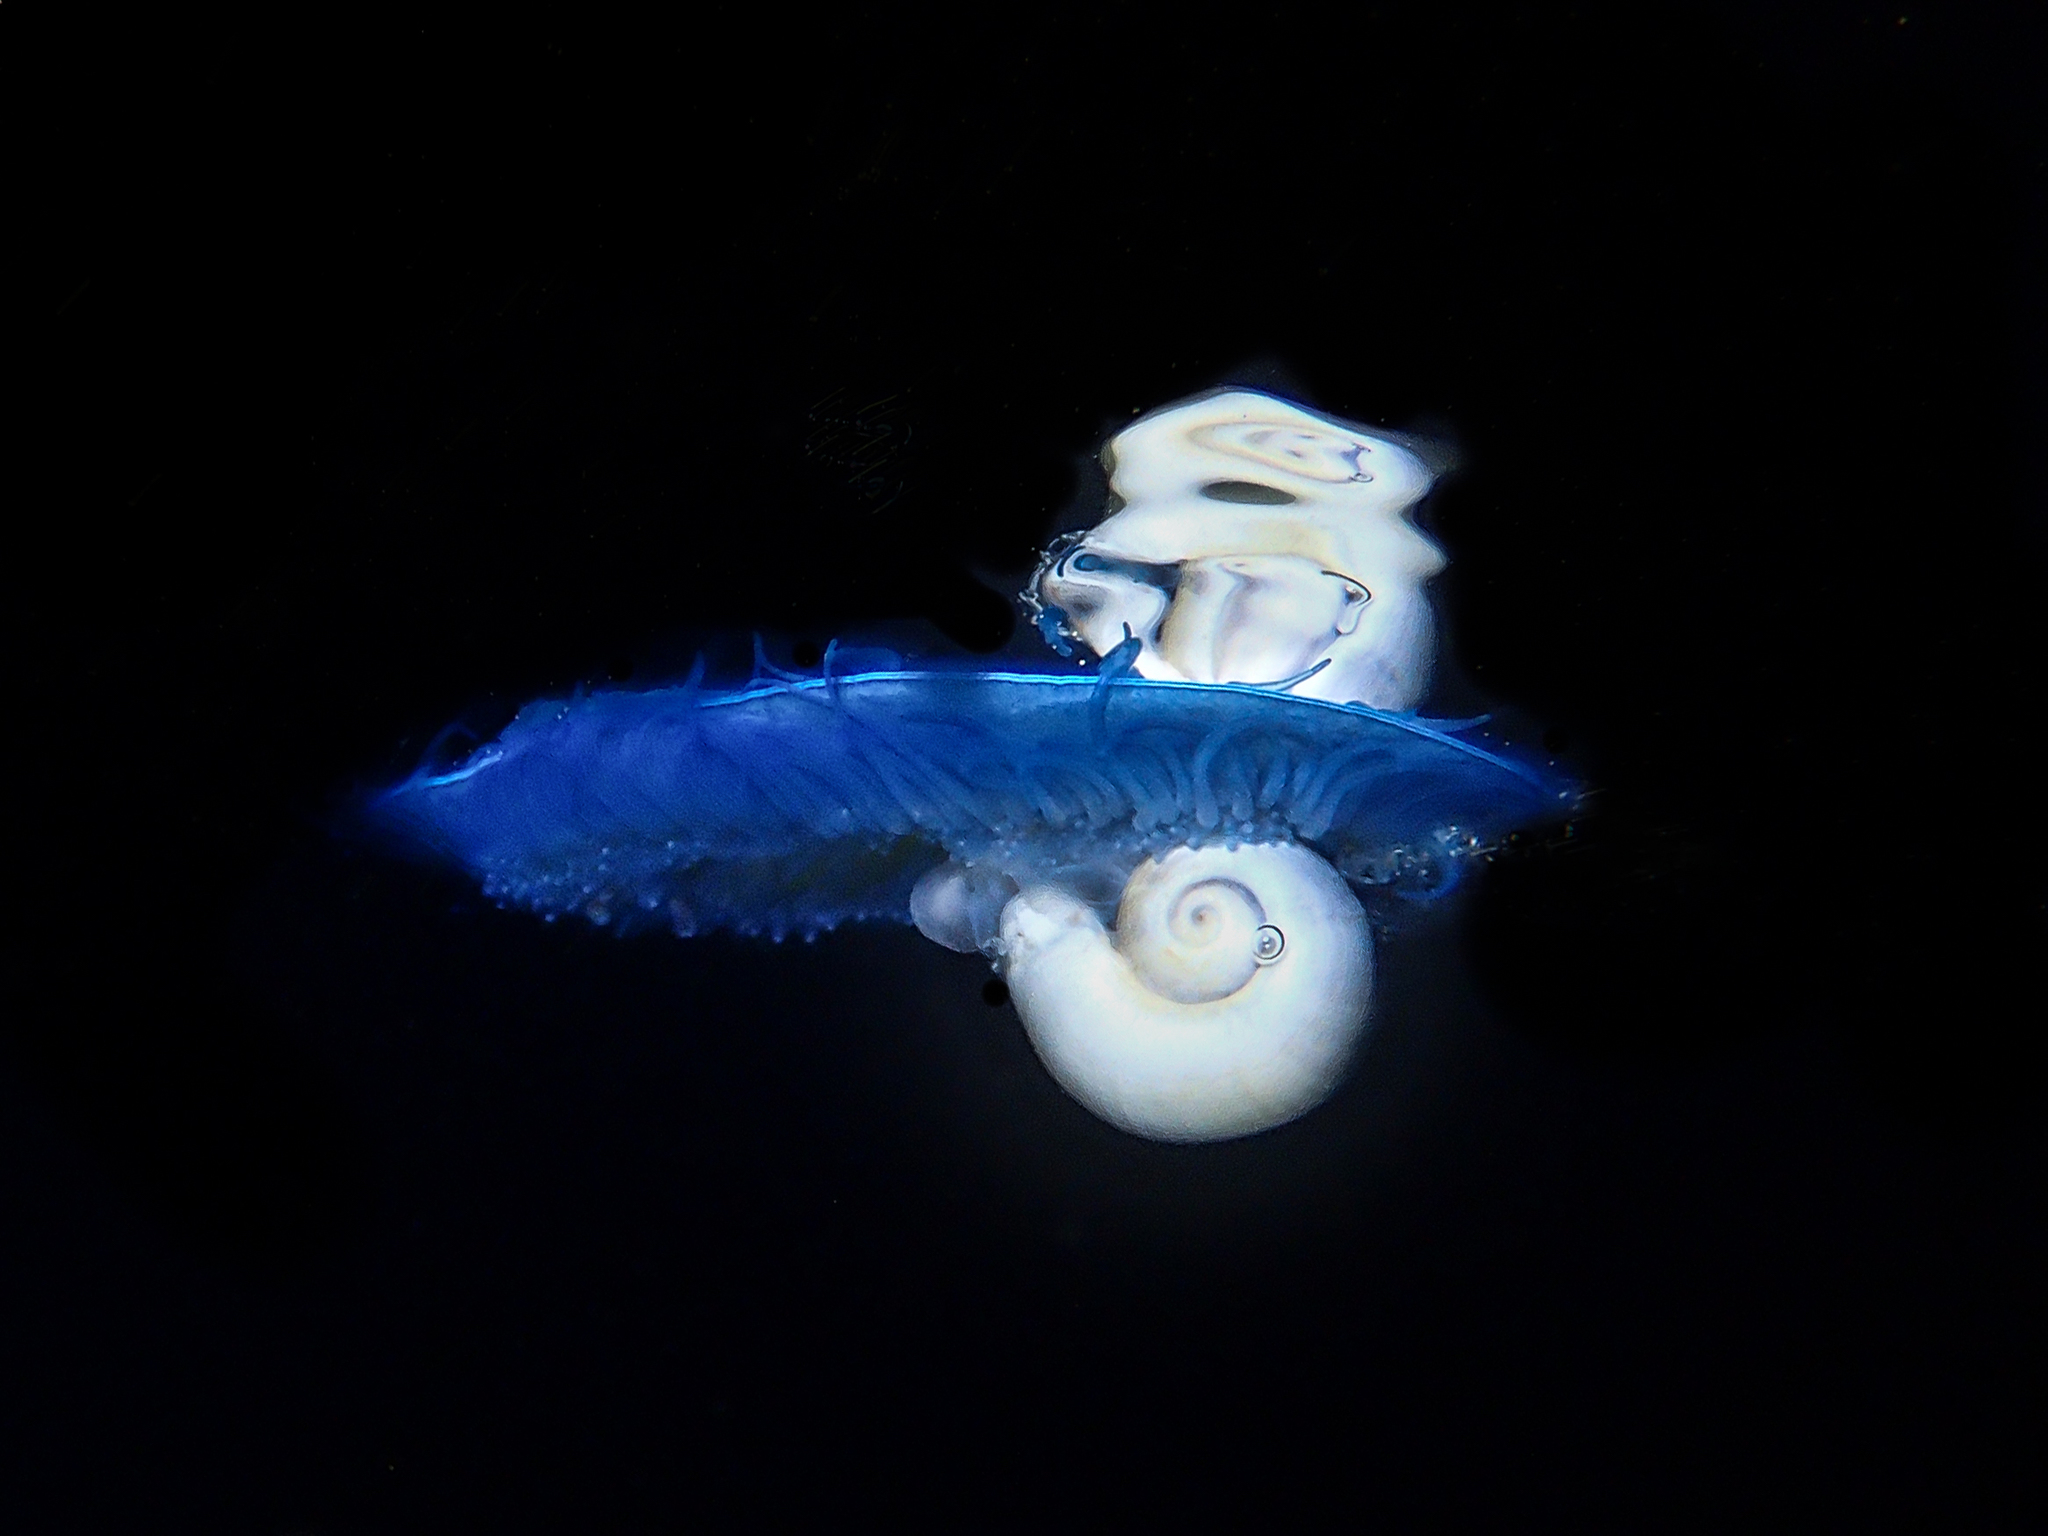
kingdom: Animalia
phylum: Mollusca
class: Gastropoda
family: Epitoniidae
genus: Janthina
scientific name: Janthina pallida
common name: Pale janthina
